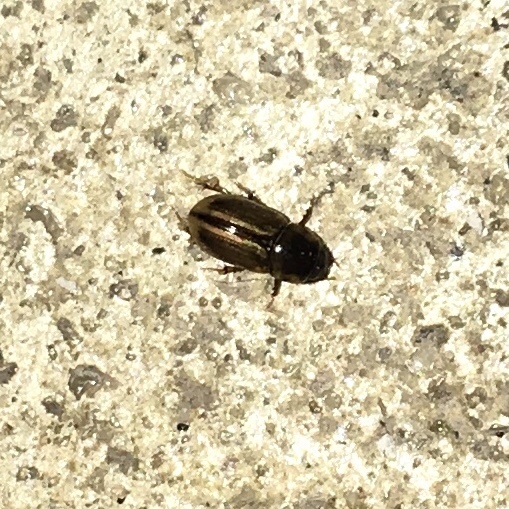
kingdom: Animalia
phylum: Arthropoda
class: Insecta
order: Coleoptera
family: Scarabaeidae
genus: Labarrus
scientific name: Labarrus lividus
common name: Scarab beetle
